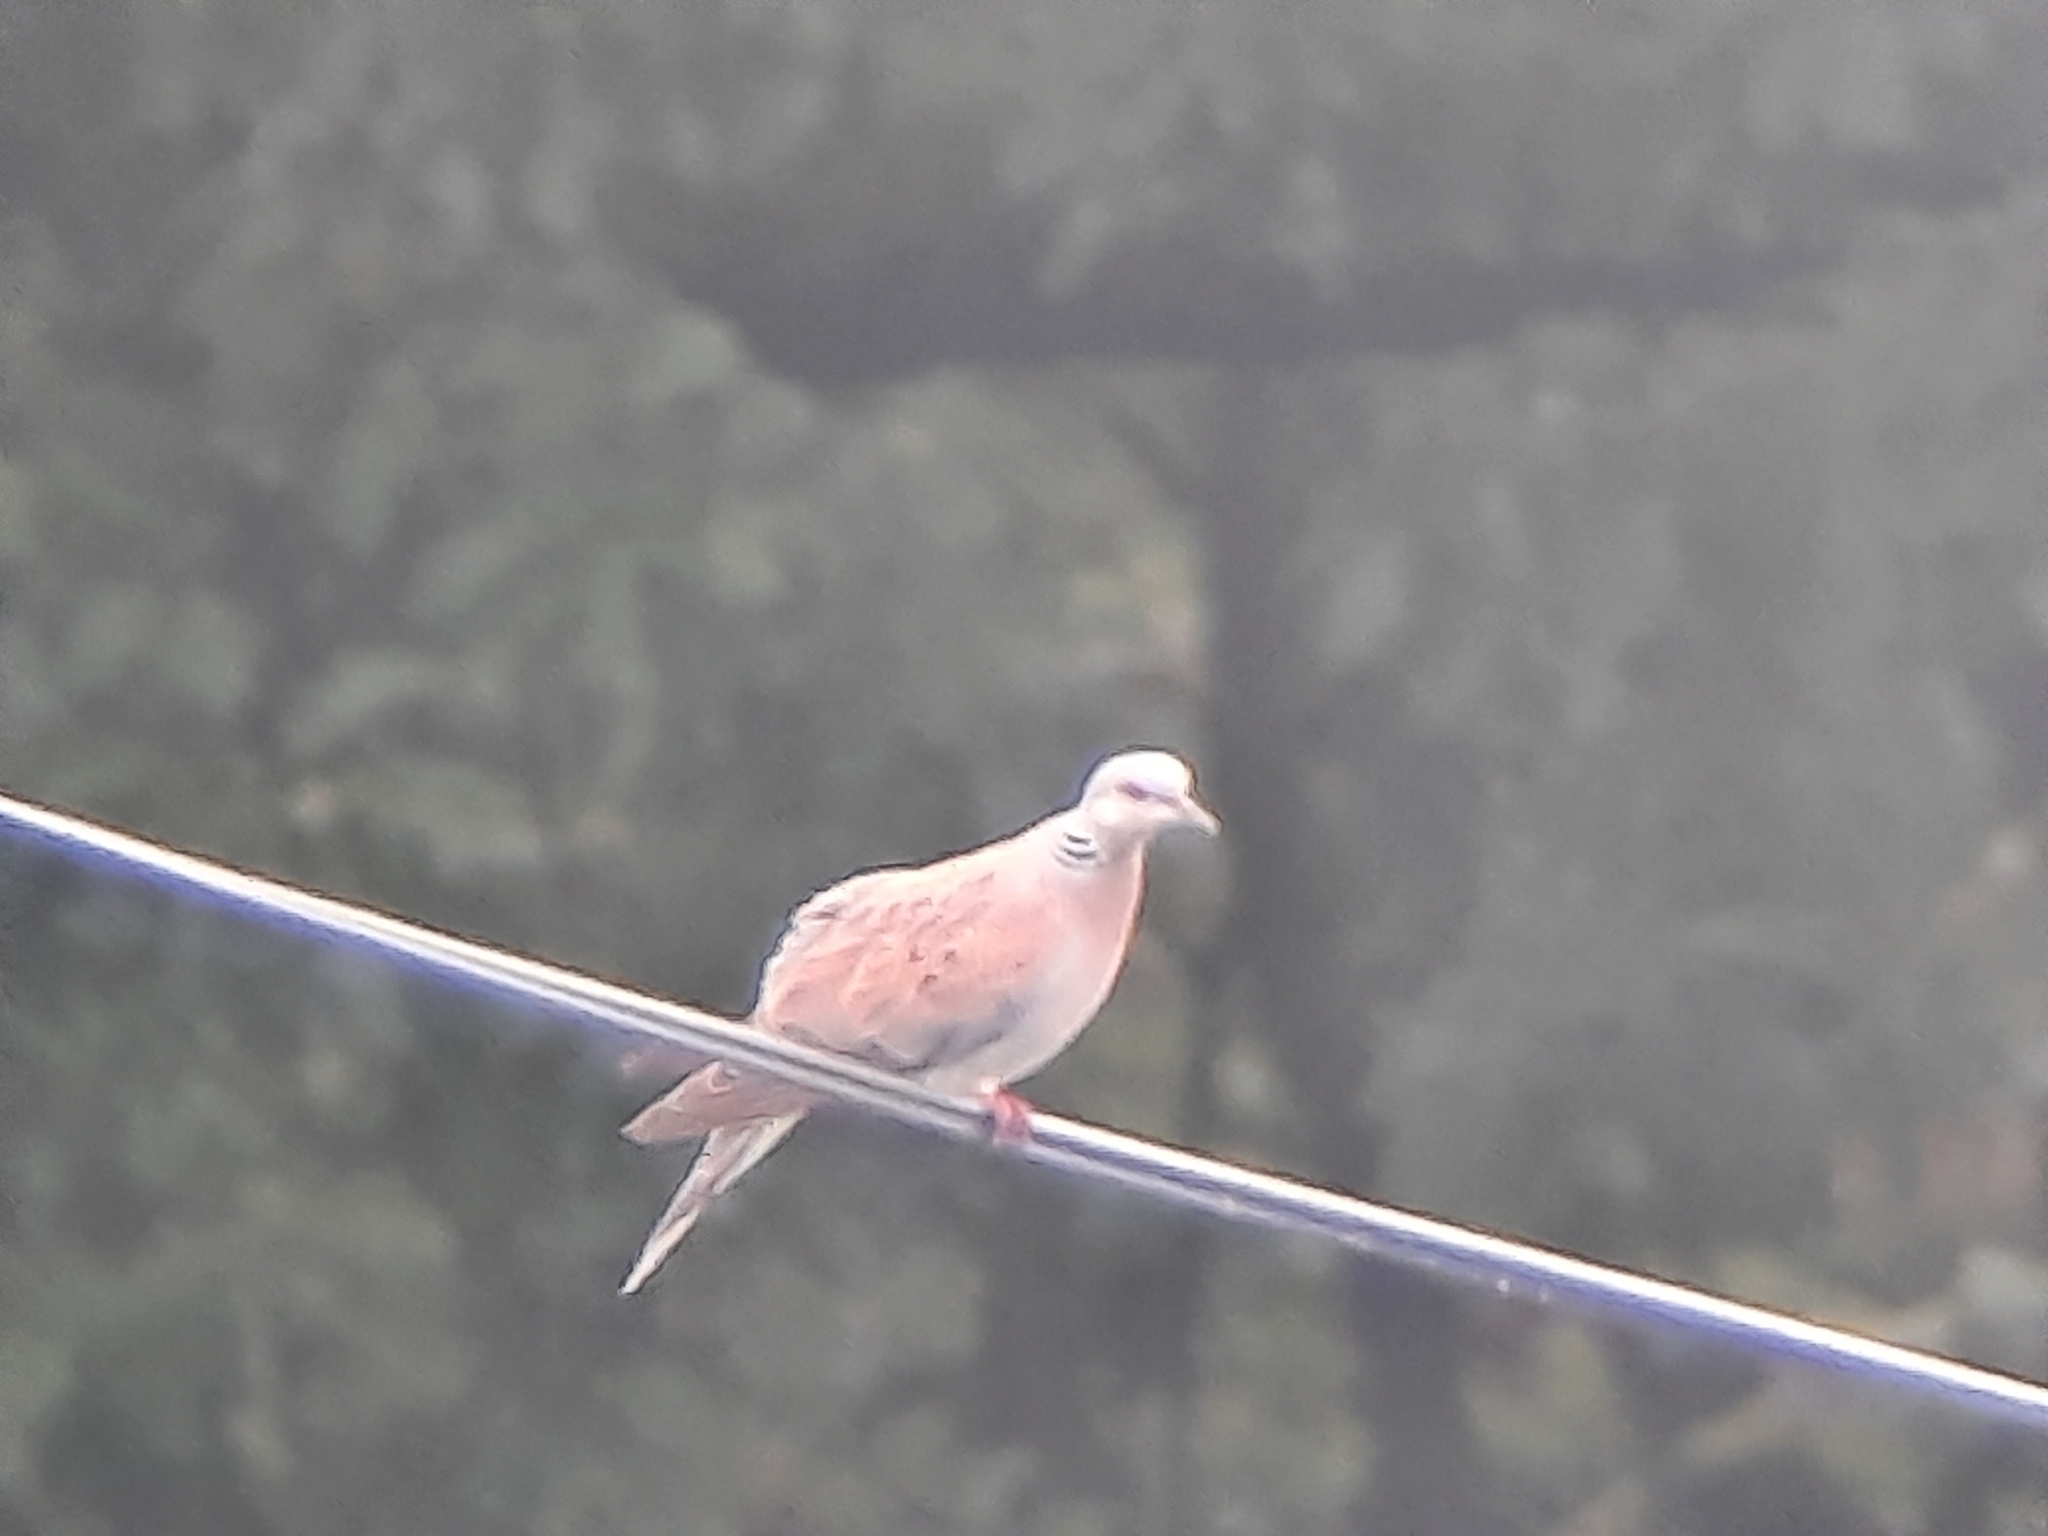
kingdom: Animalia
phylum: Chordata
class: Aves
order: Columbiformes
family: Columbidae
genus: Streptopelia
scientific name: Streptopelia turtur
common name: European turtle dove
